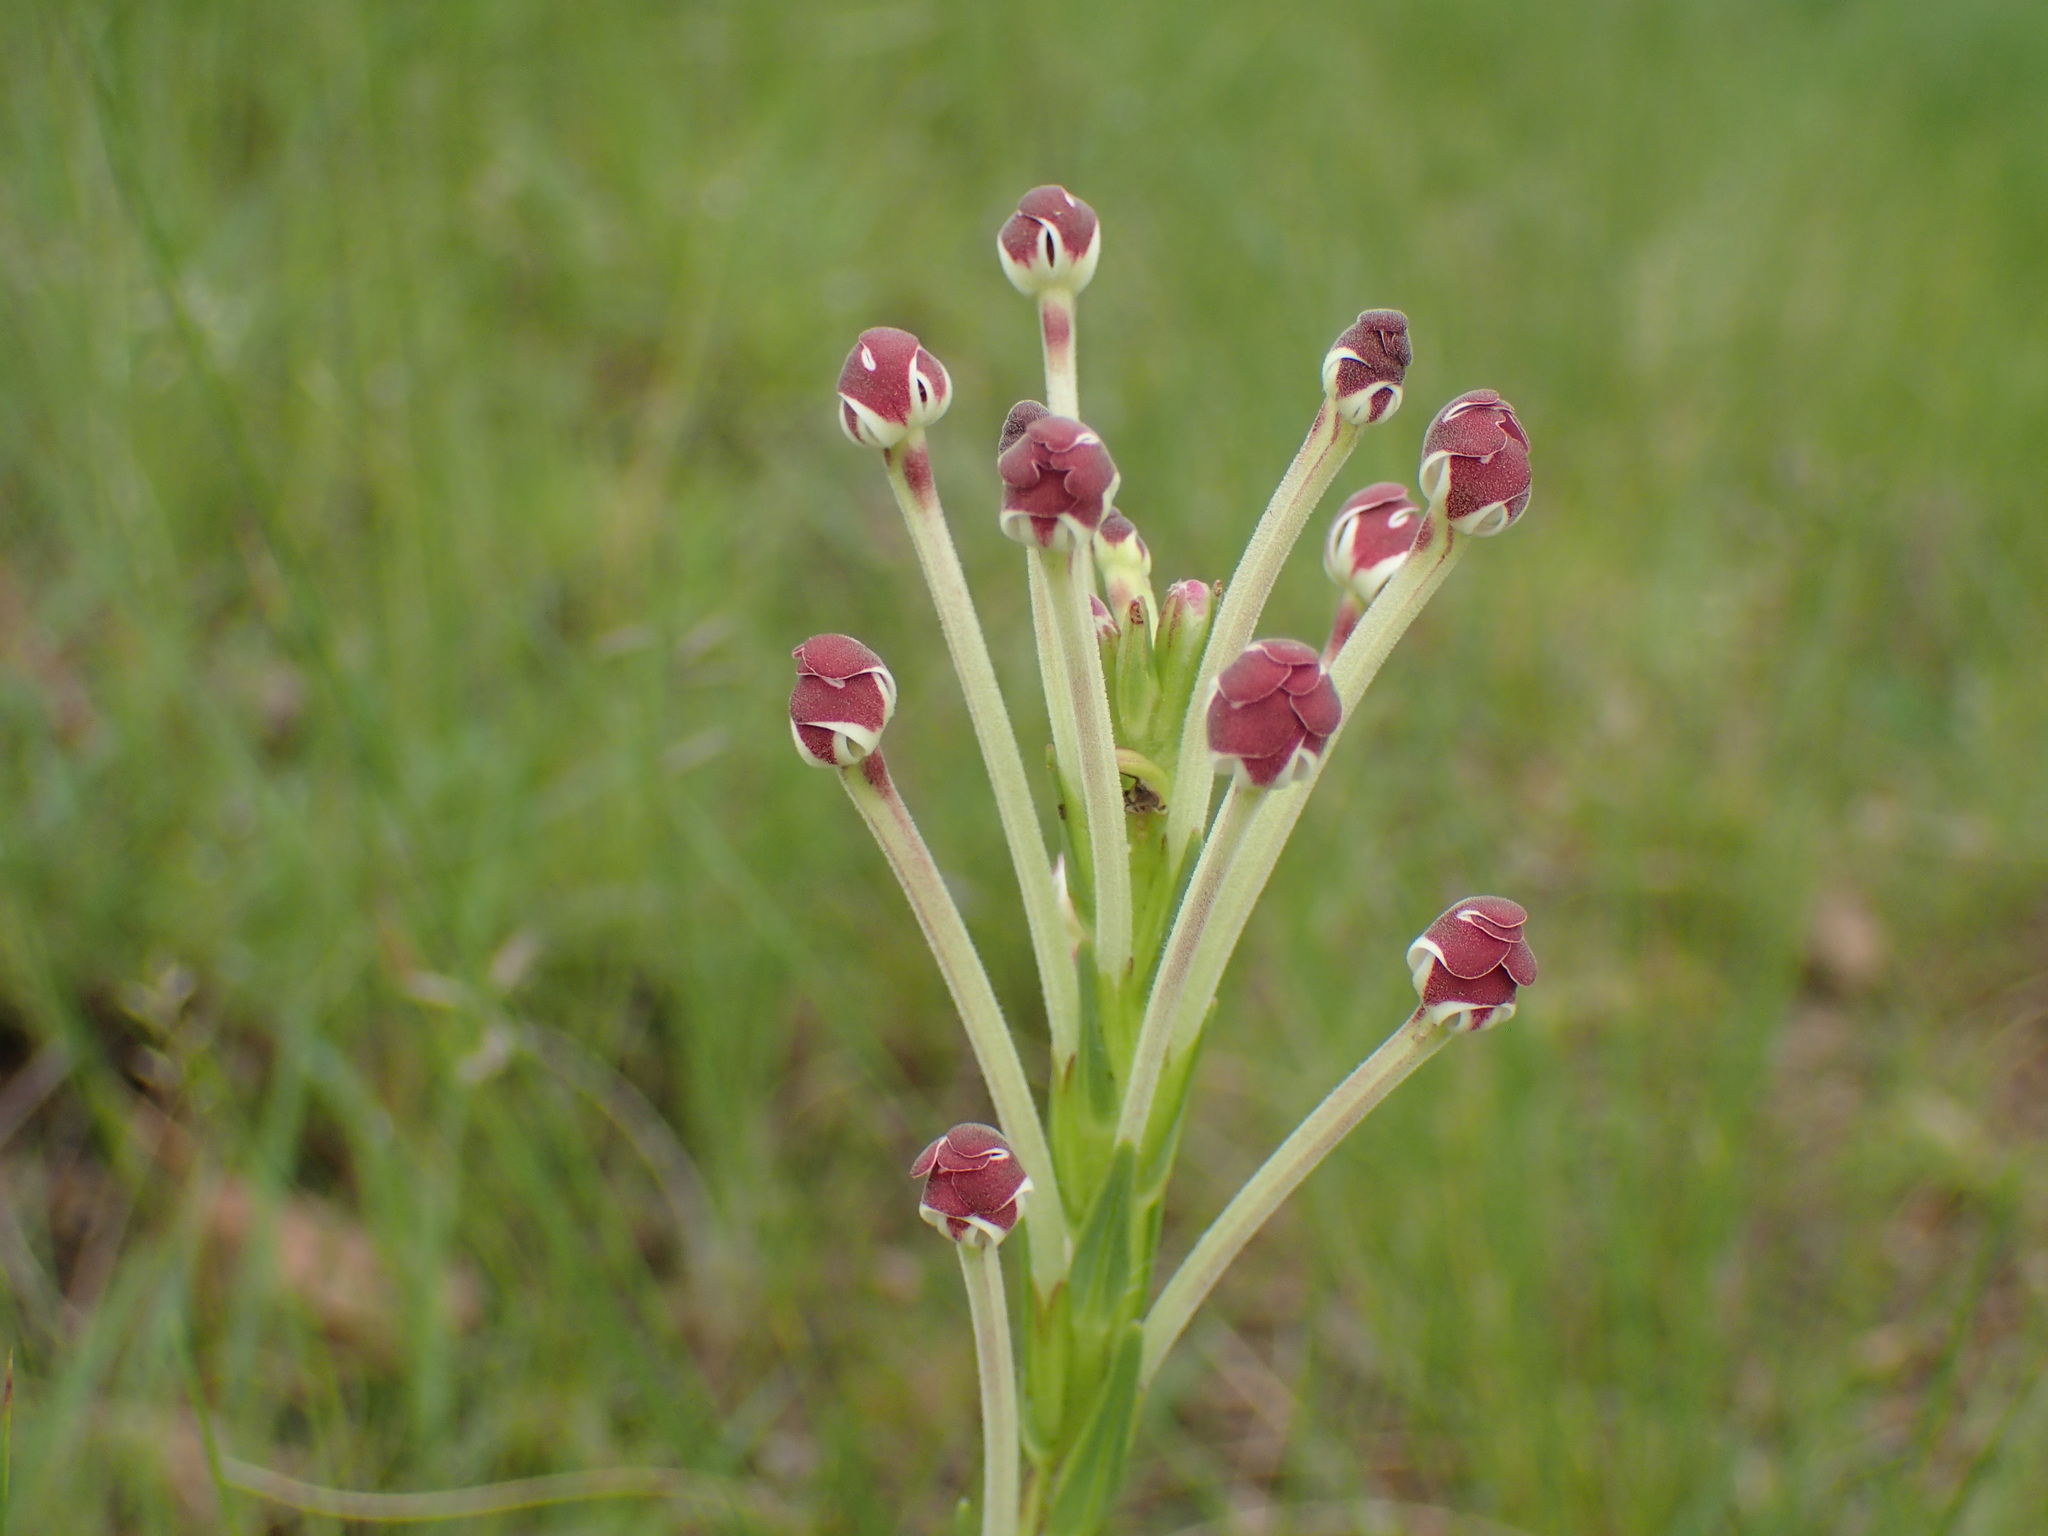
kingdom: Plantae
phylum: Tracheophyta
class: Magnoliopsida
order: Lamiales
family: Scrophulariaceae
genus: Zaluzianskya
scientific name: Zaluzianskya elongata
